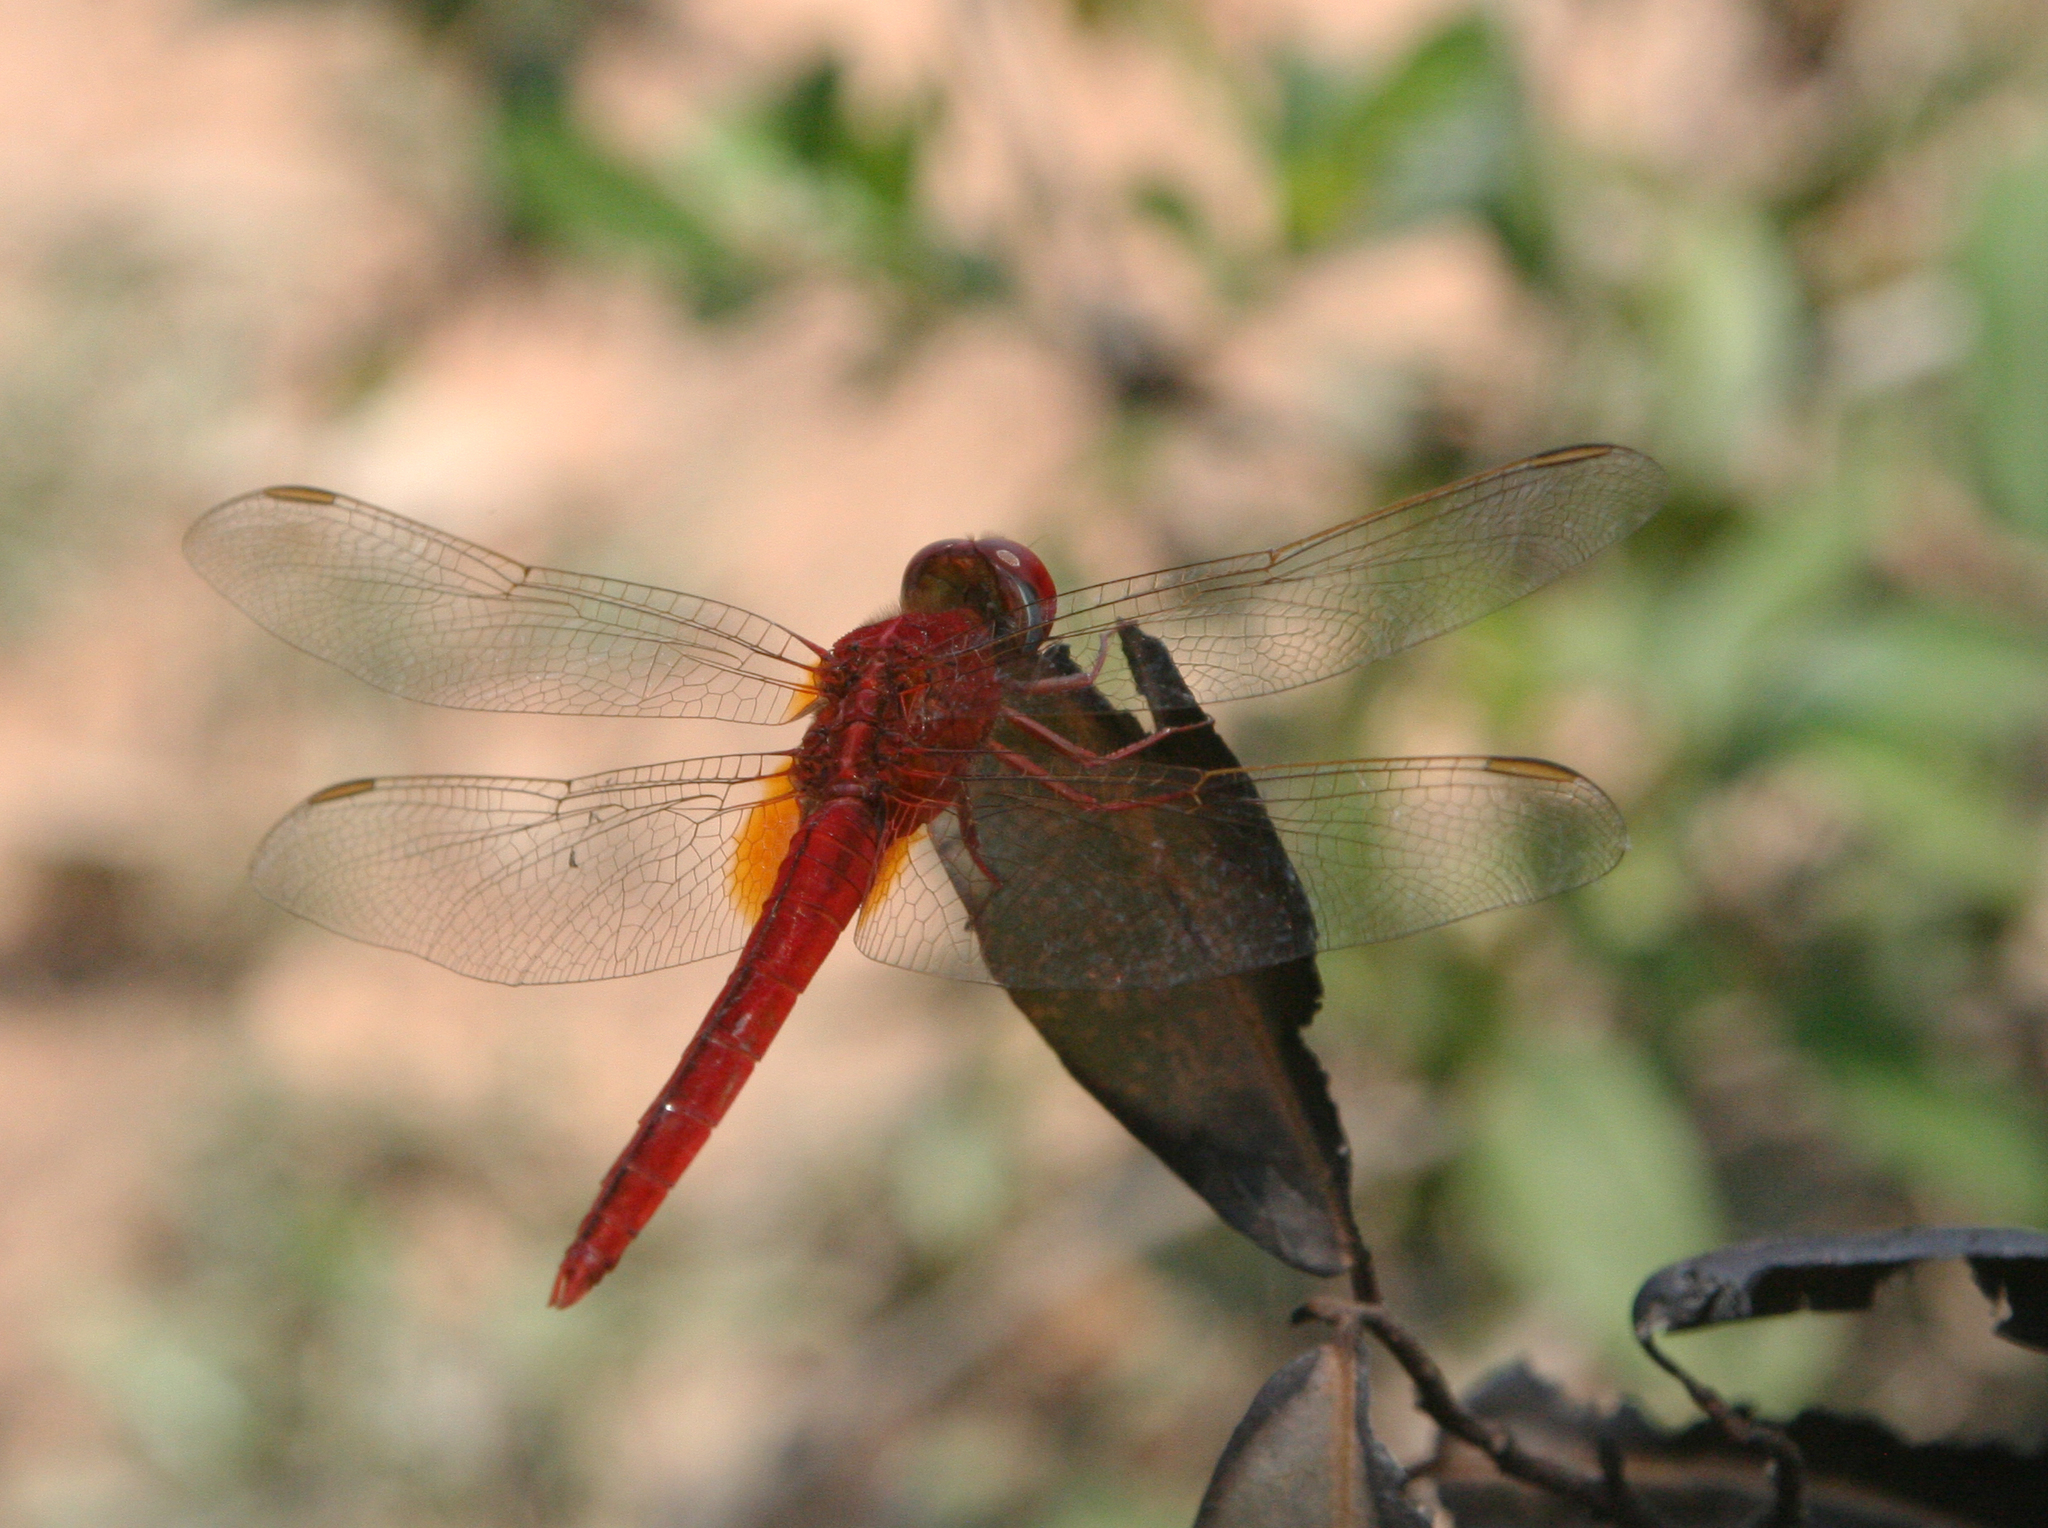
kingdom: Animalia
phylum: Arthropoda
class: Insecta
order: Odonata
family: Libellulidae
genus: Crocothemis
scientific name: Crocothemis servilia
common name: Scarlet skimmer
